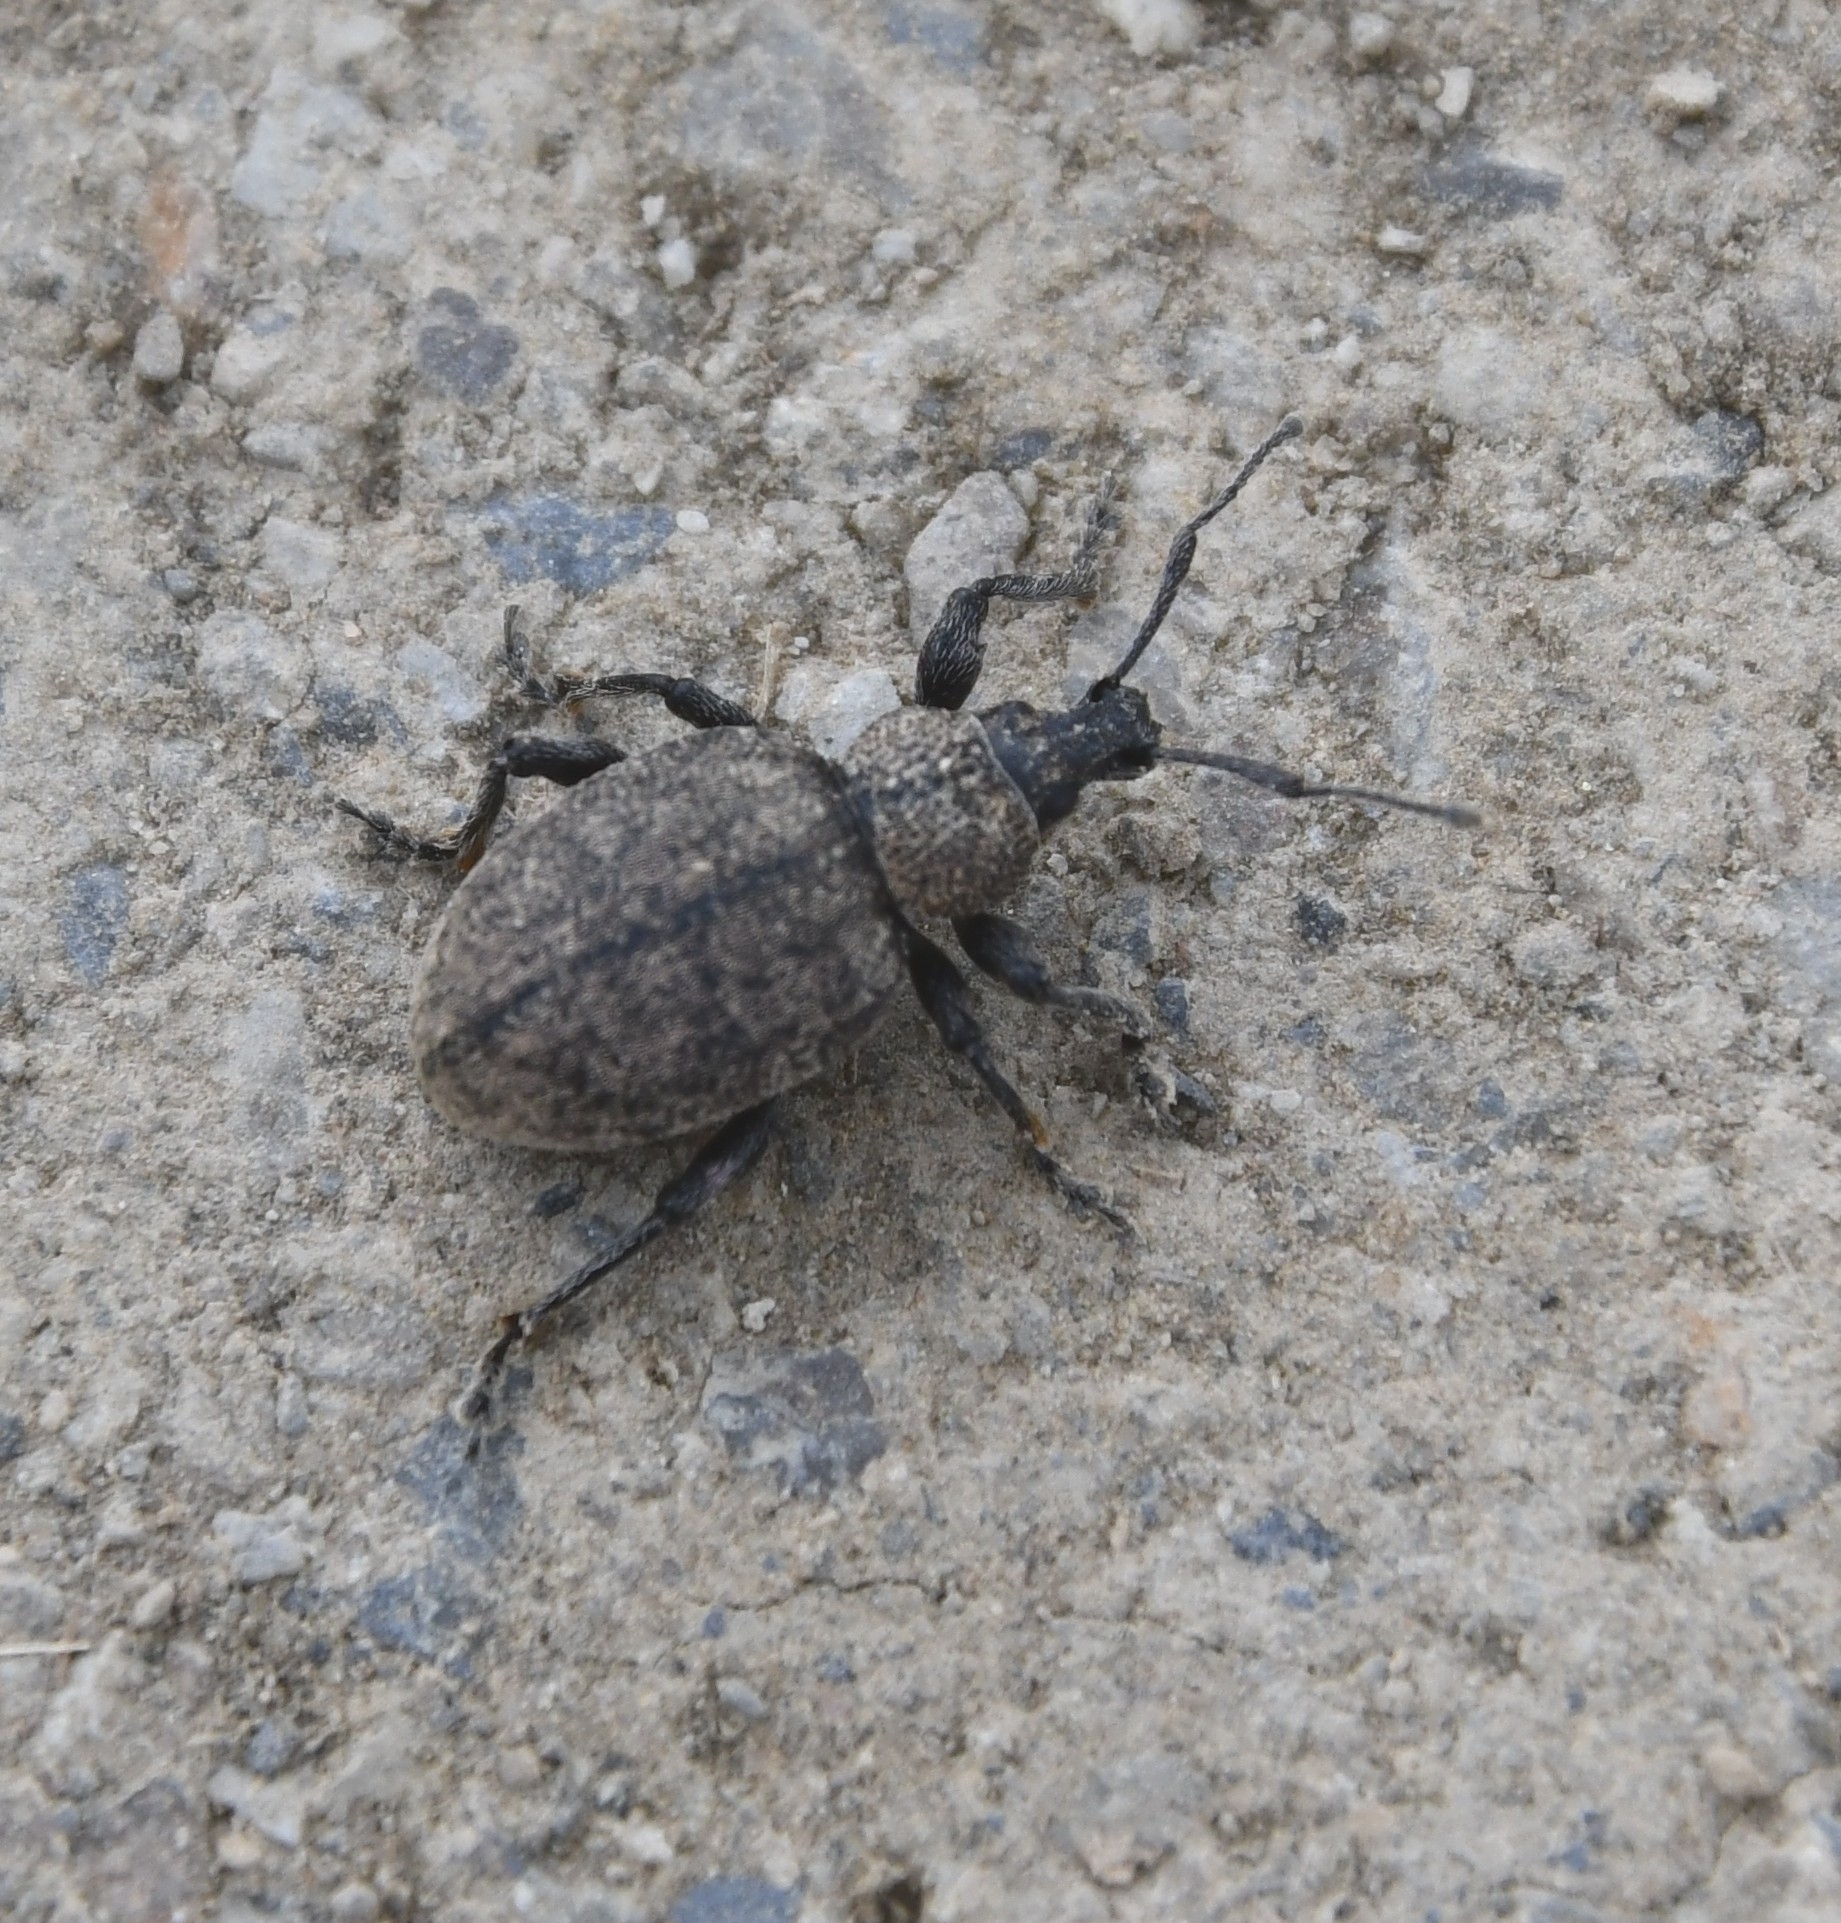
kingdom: Animalia
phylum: Arthropoda
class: Insecta
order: Coleoptera
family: Curculionidae
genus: Otiorhynchus
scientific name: Otiorhynchus ligustici
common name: Weevil
